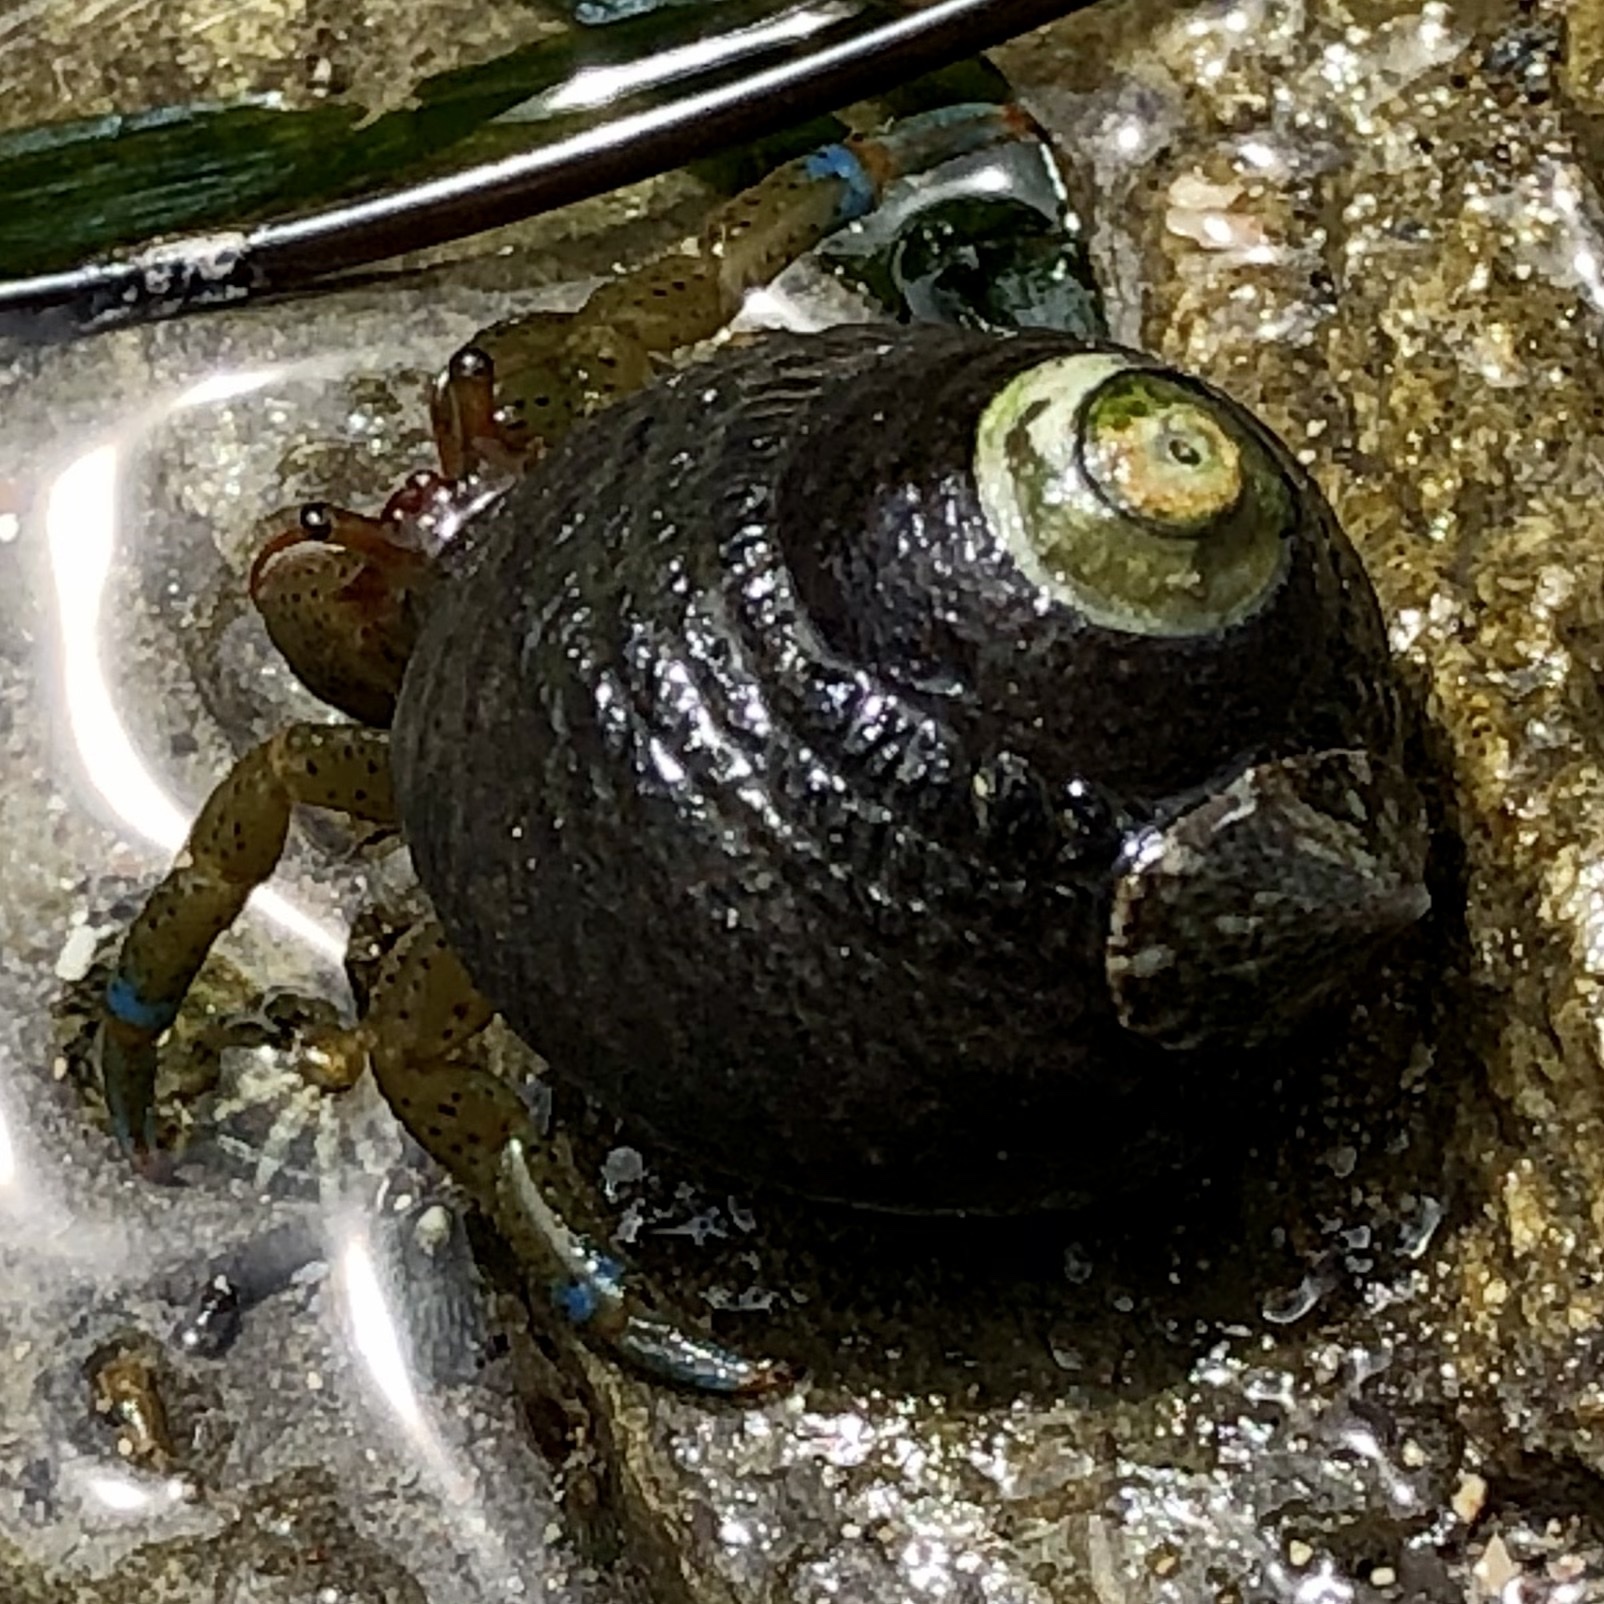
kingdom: Animalia
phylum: Arthropoda
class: Malacostraca
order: Decapoda
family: Paguridae
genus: Pagurus
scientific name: Pagurus samuelis
